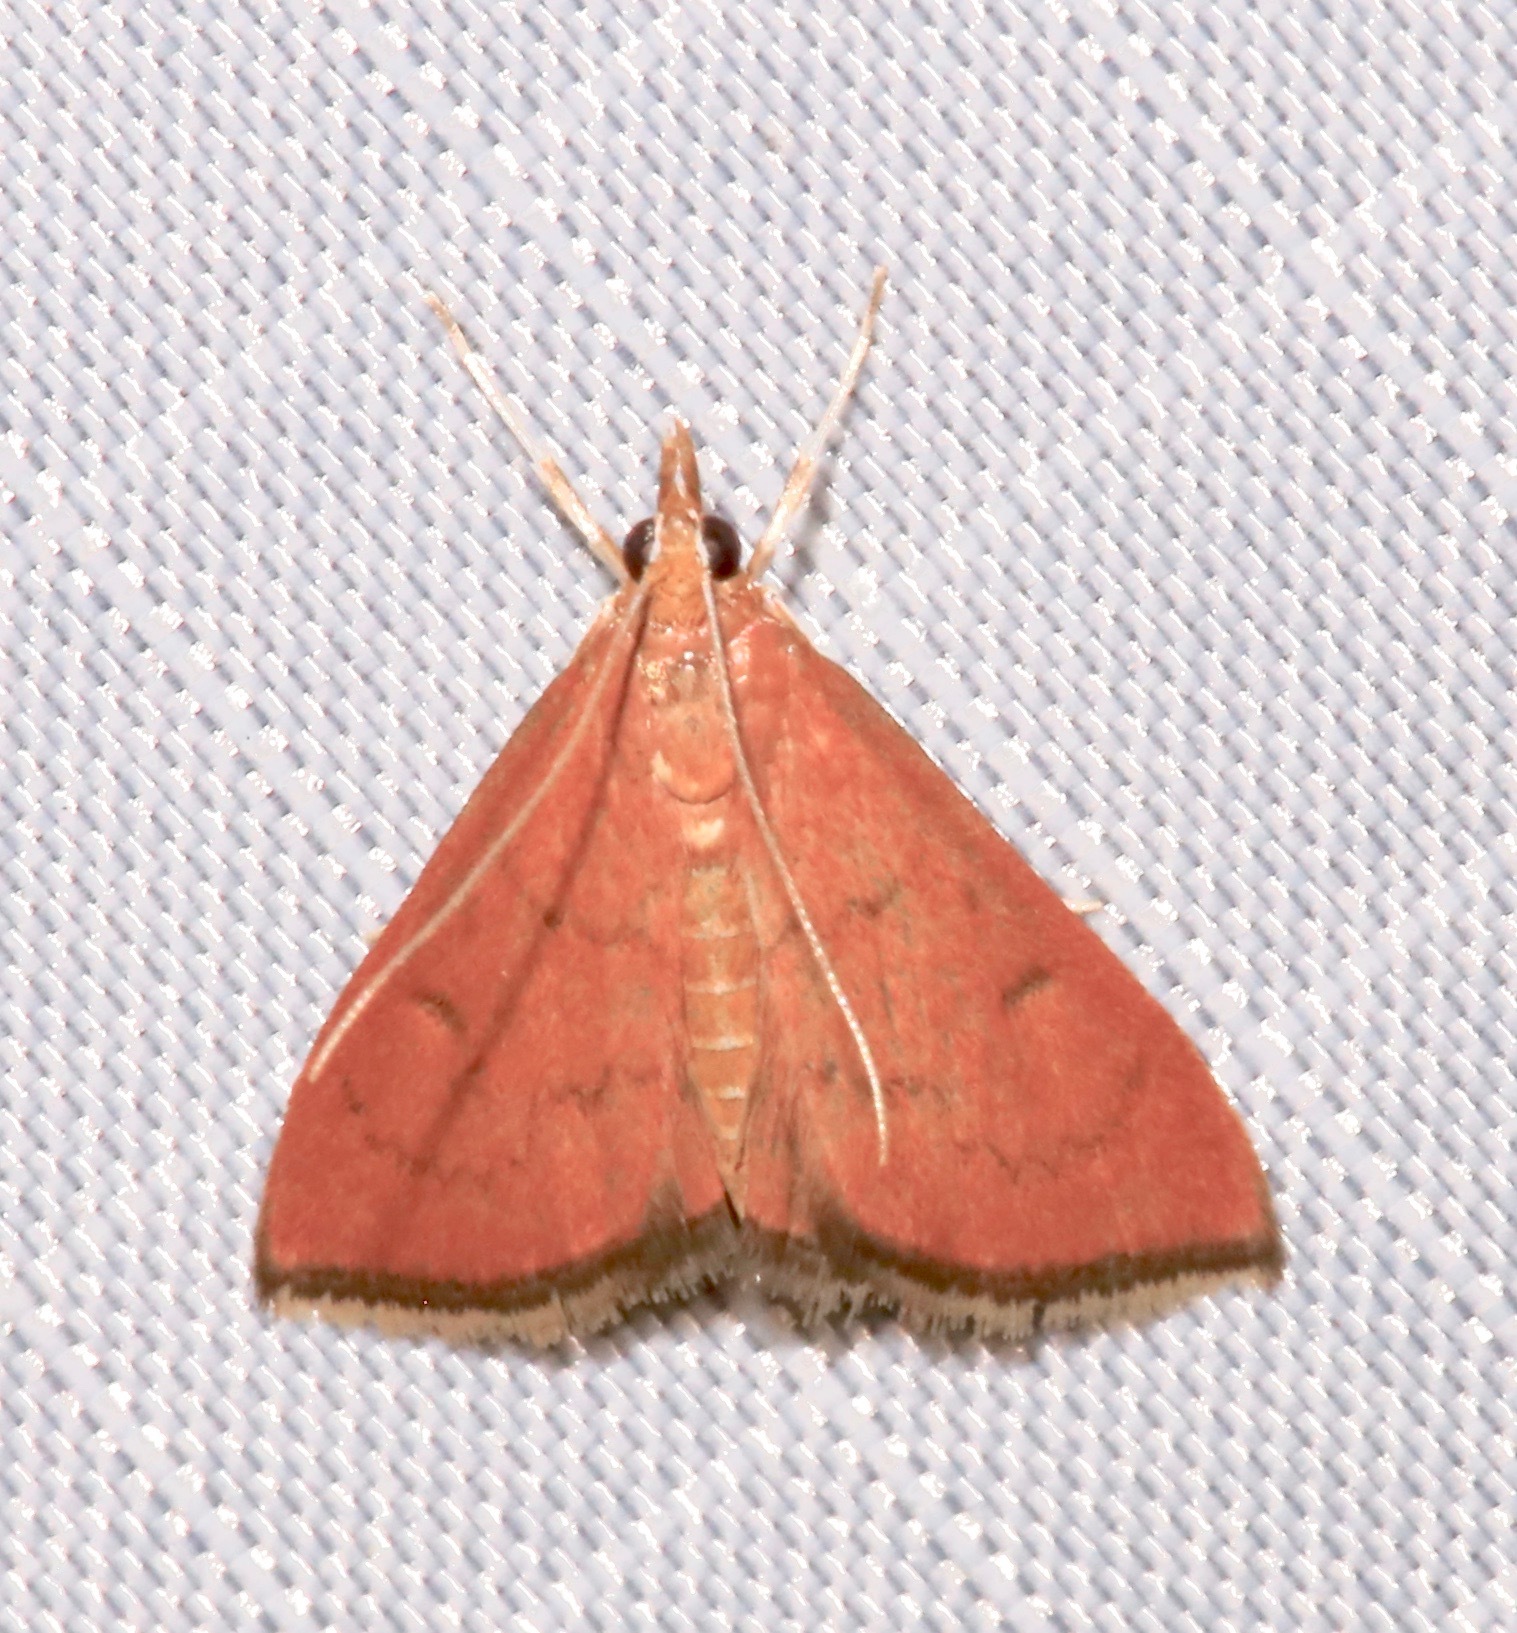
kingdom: Animalia
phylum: Arthropoda
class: Insecta
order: Lepidoptera
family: Crambidae
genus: Oenobotys
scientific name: Oenobotys texanalis
